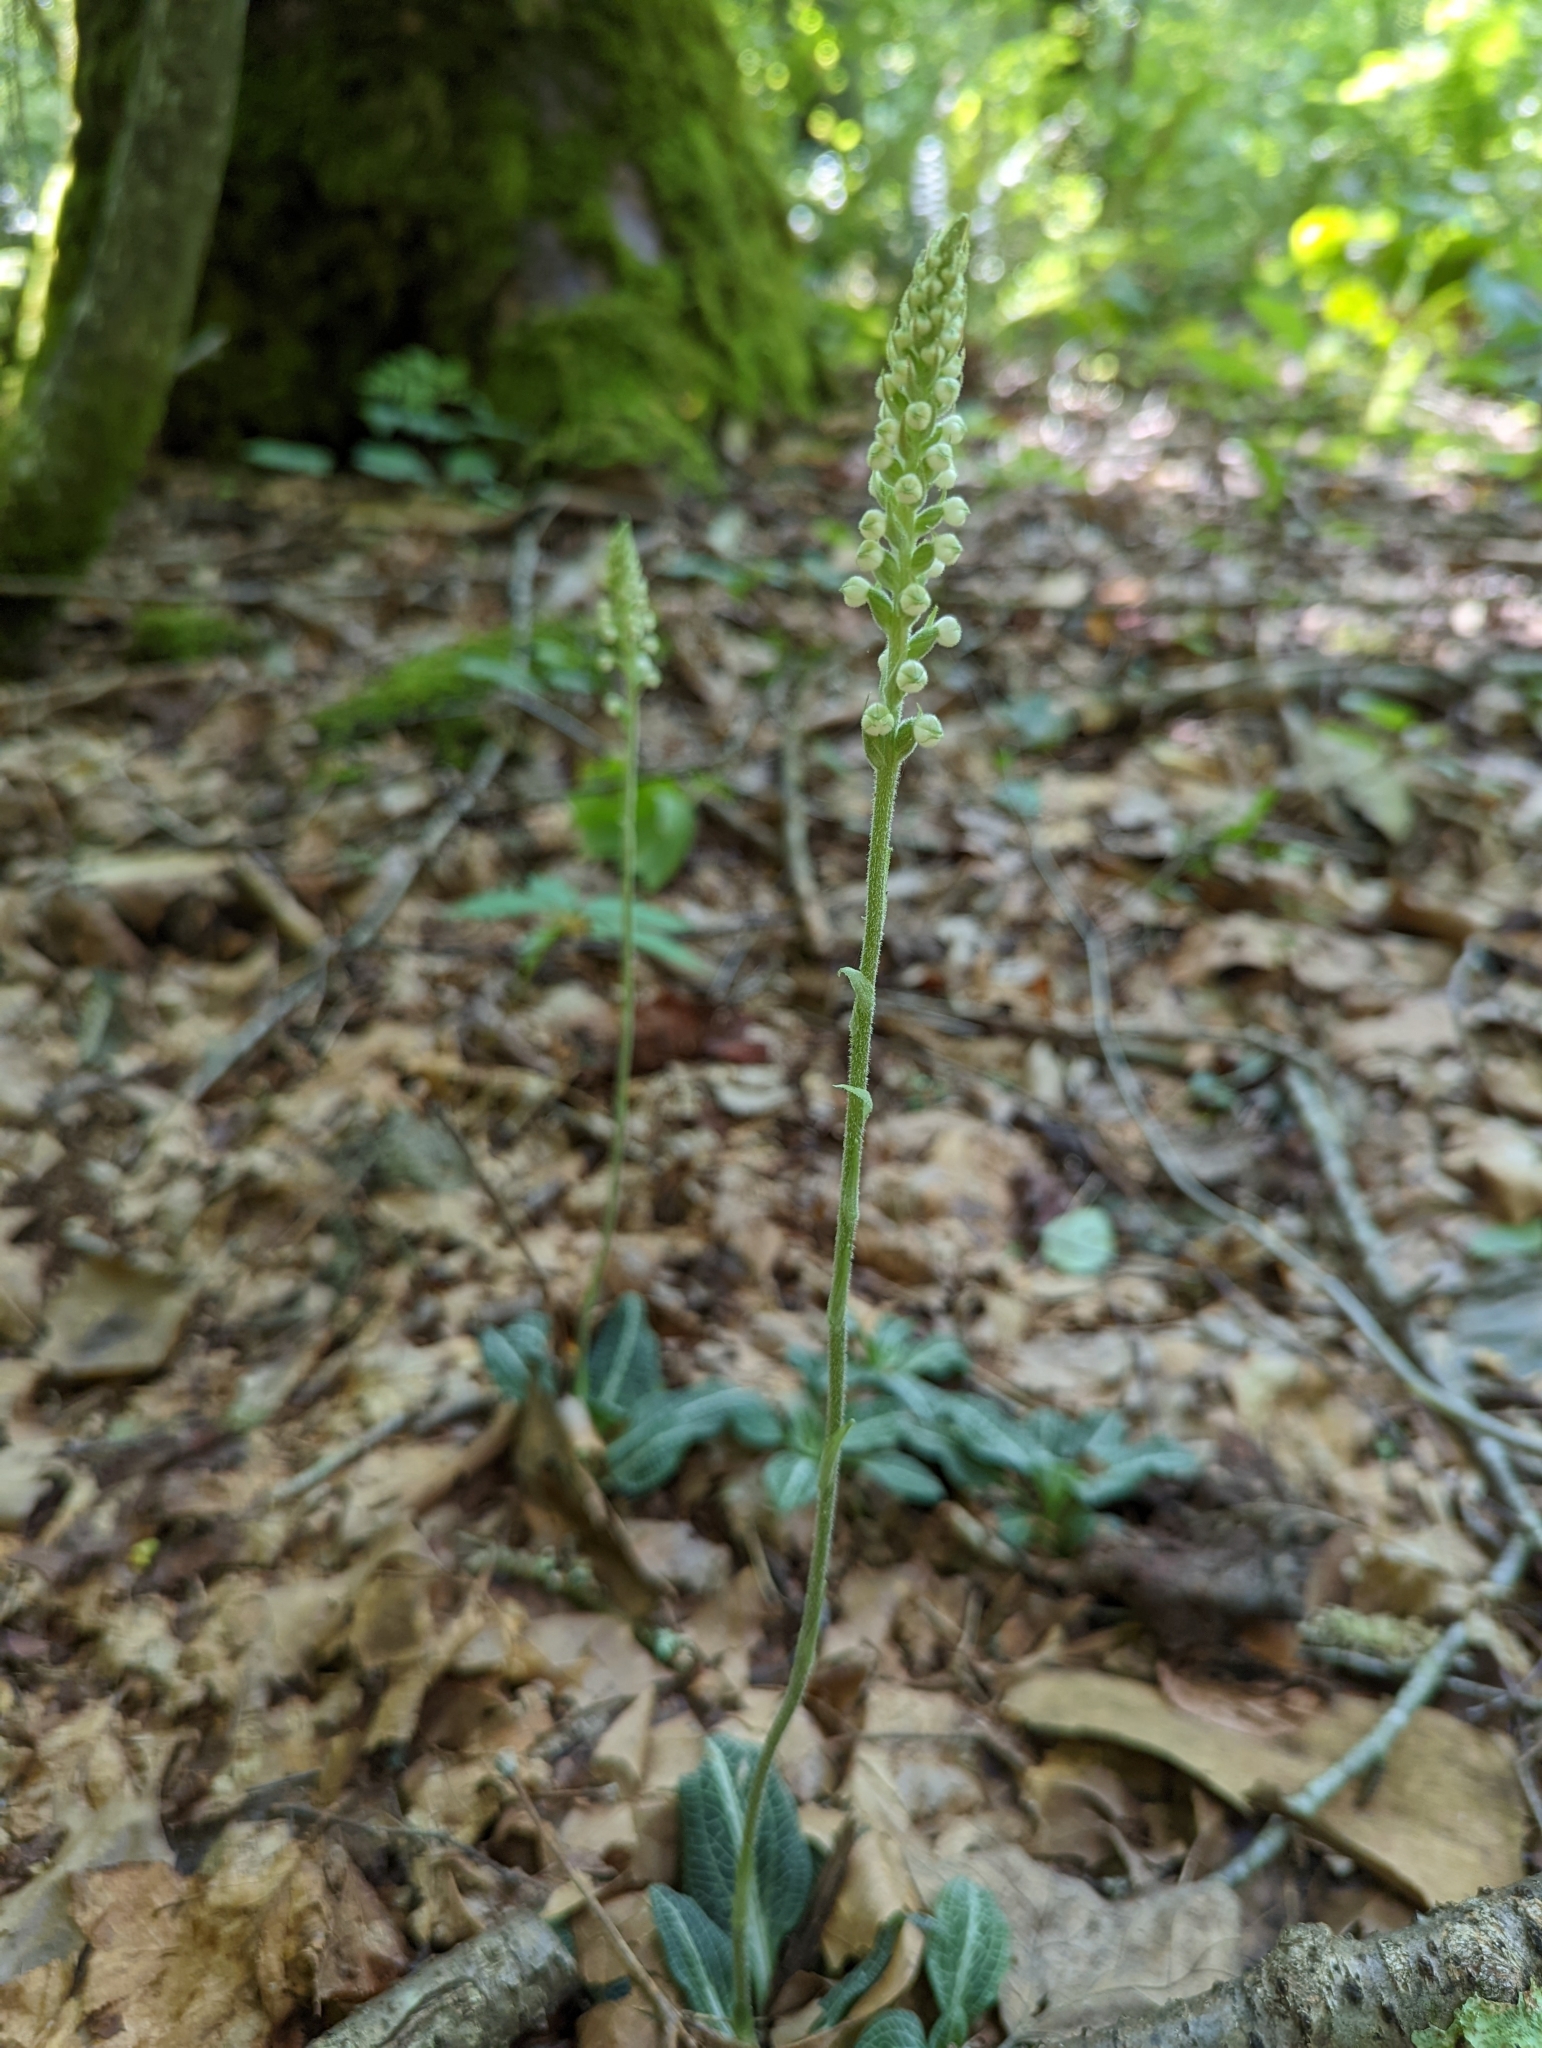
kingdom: Plantae
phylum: Tracheophyta
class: Liliopsida
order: Asparagales
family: Orchidaceae
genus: Goodyera
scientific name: Goodyera pubescens
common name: Downy rattlesnake-plantain
